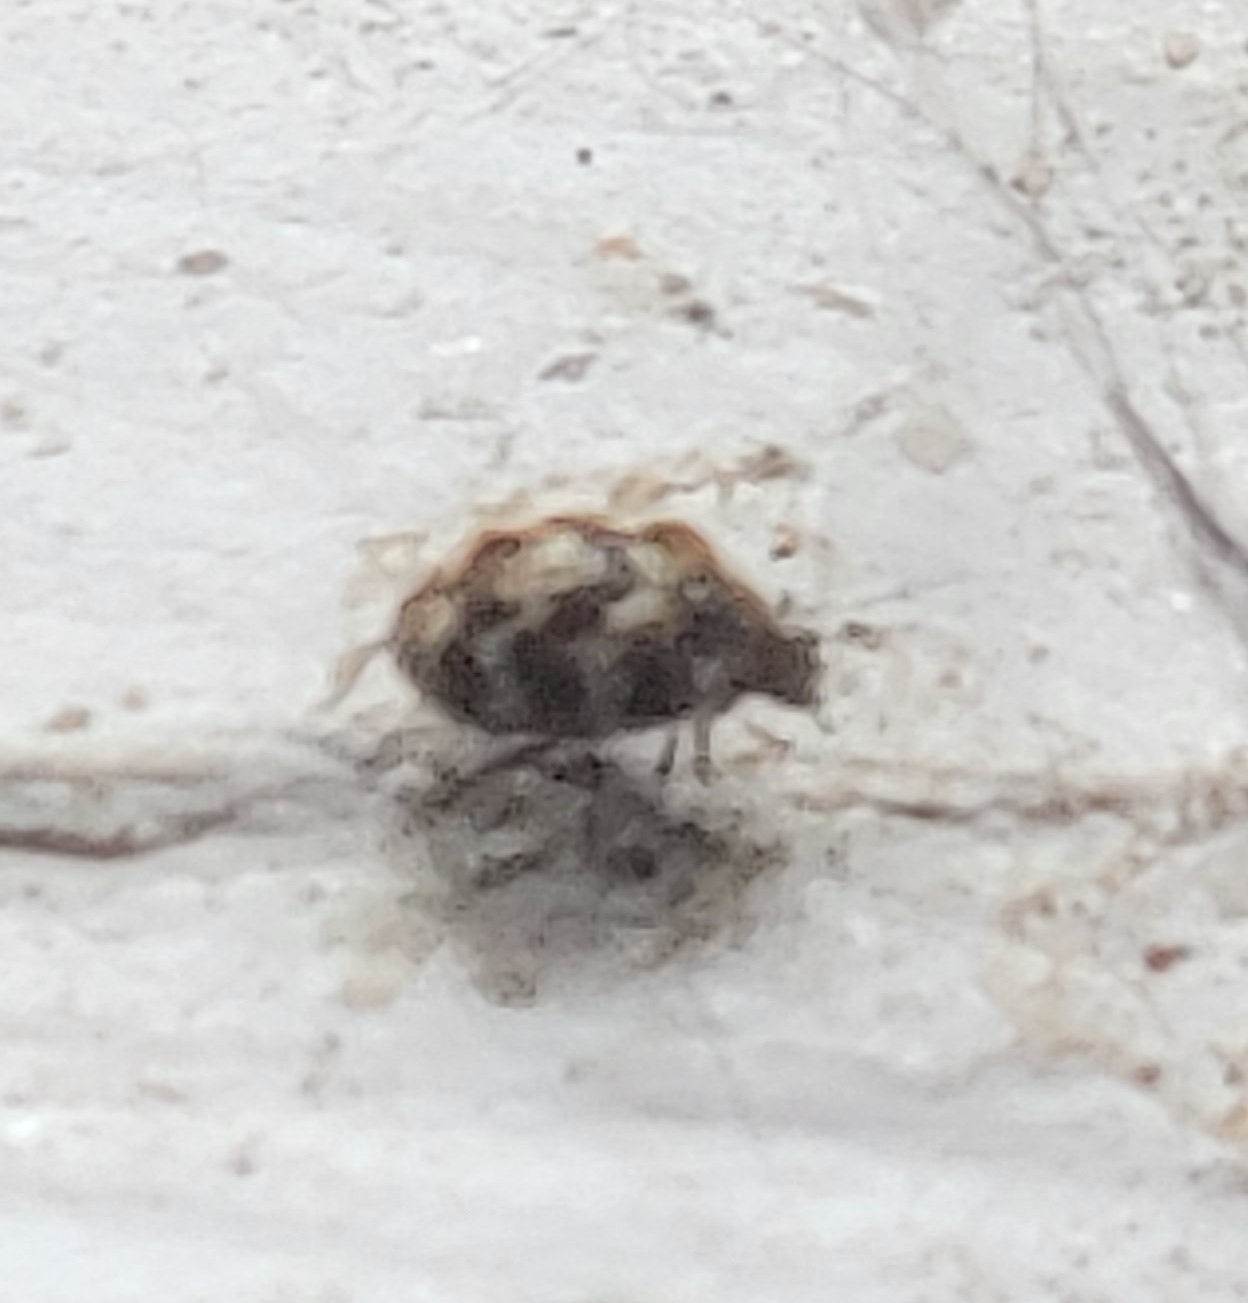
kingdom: Animalia
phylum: Arthropoda
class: Insecta
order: Coleoptera
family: Dermestidae
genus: Anthrenus
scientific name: Anthrenus verbasci
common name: Varied carpet beetle
